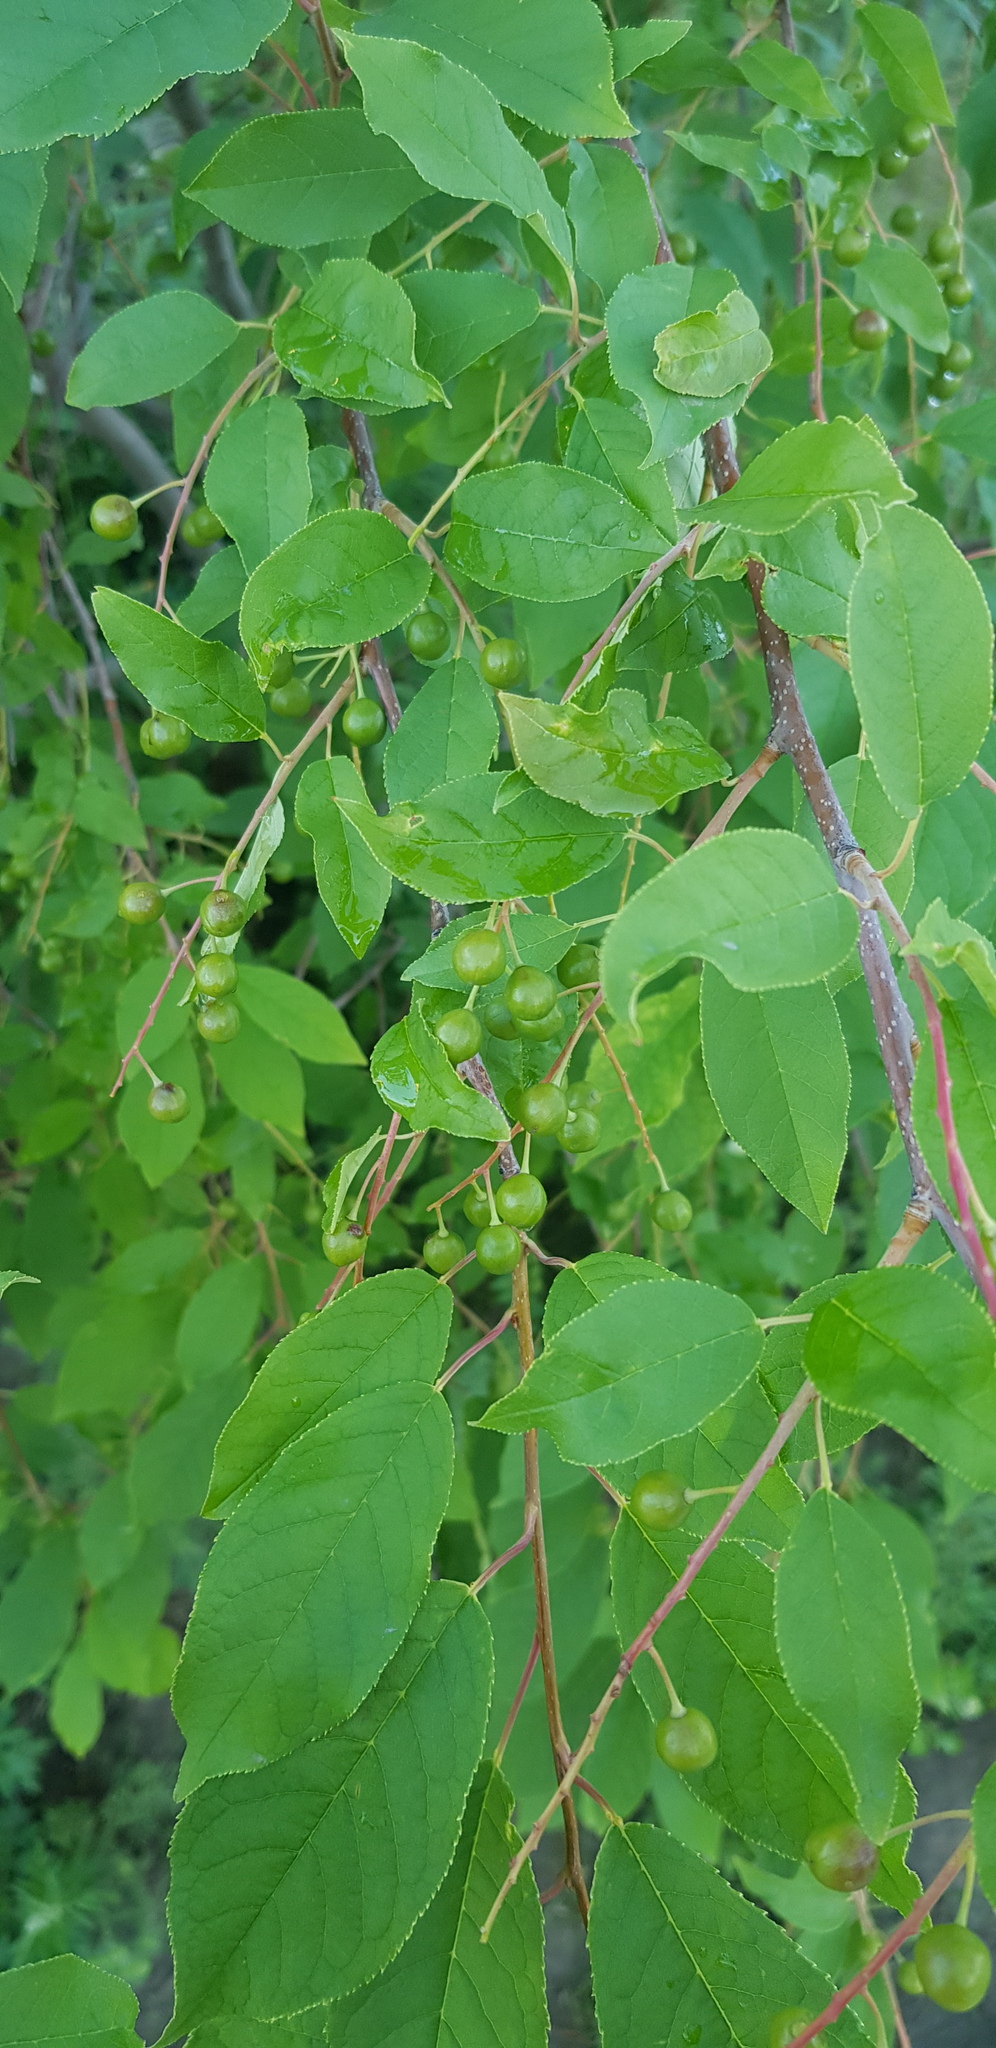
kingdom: Plantae
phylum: Tracheophyta
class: Magnoliopsida
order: Rosales
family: Rosaceae
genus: Prunus
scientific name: Prunus padus
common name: Bird cherry
